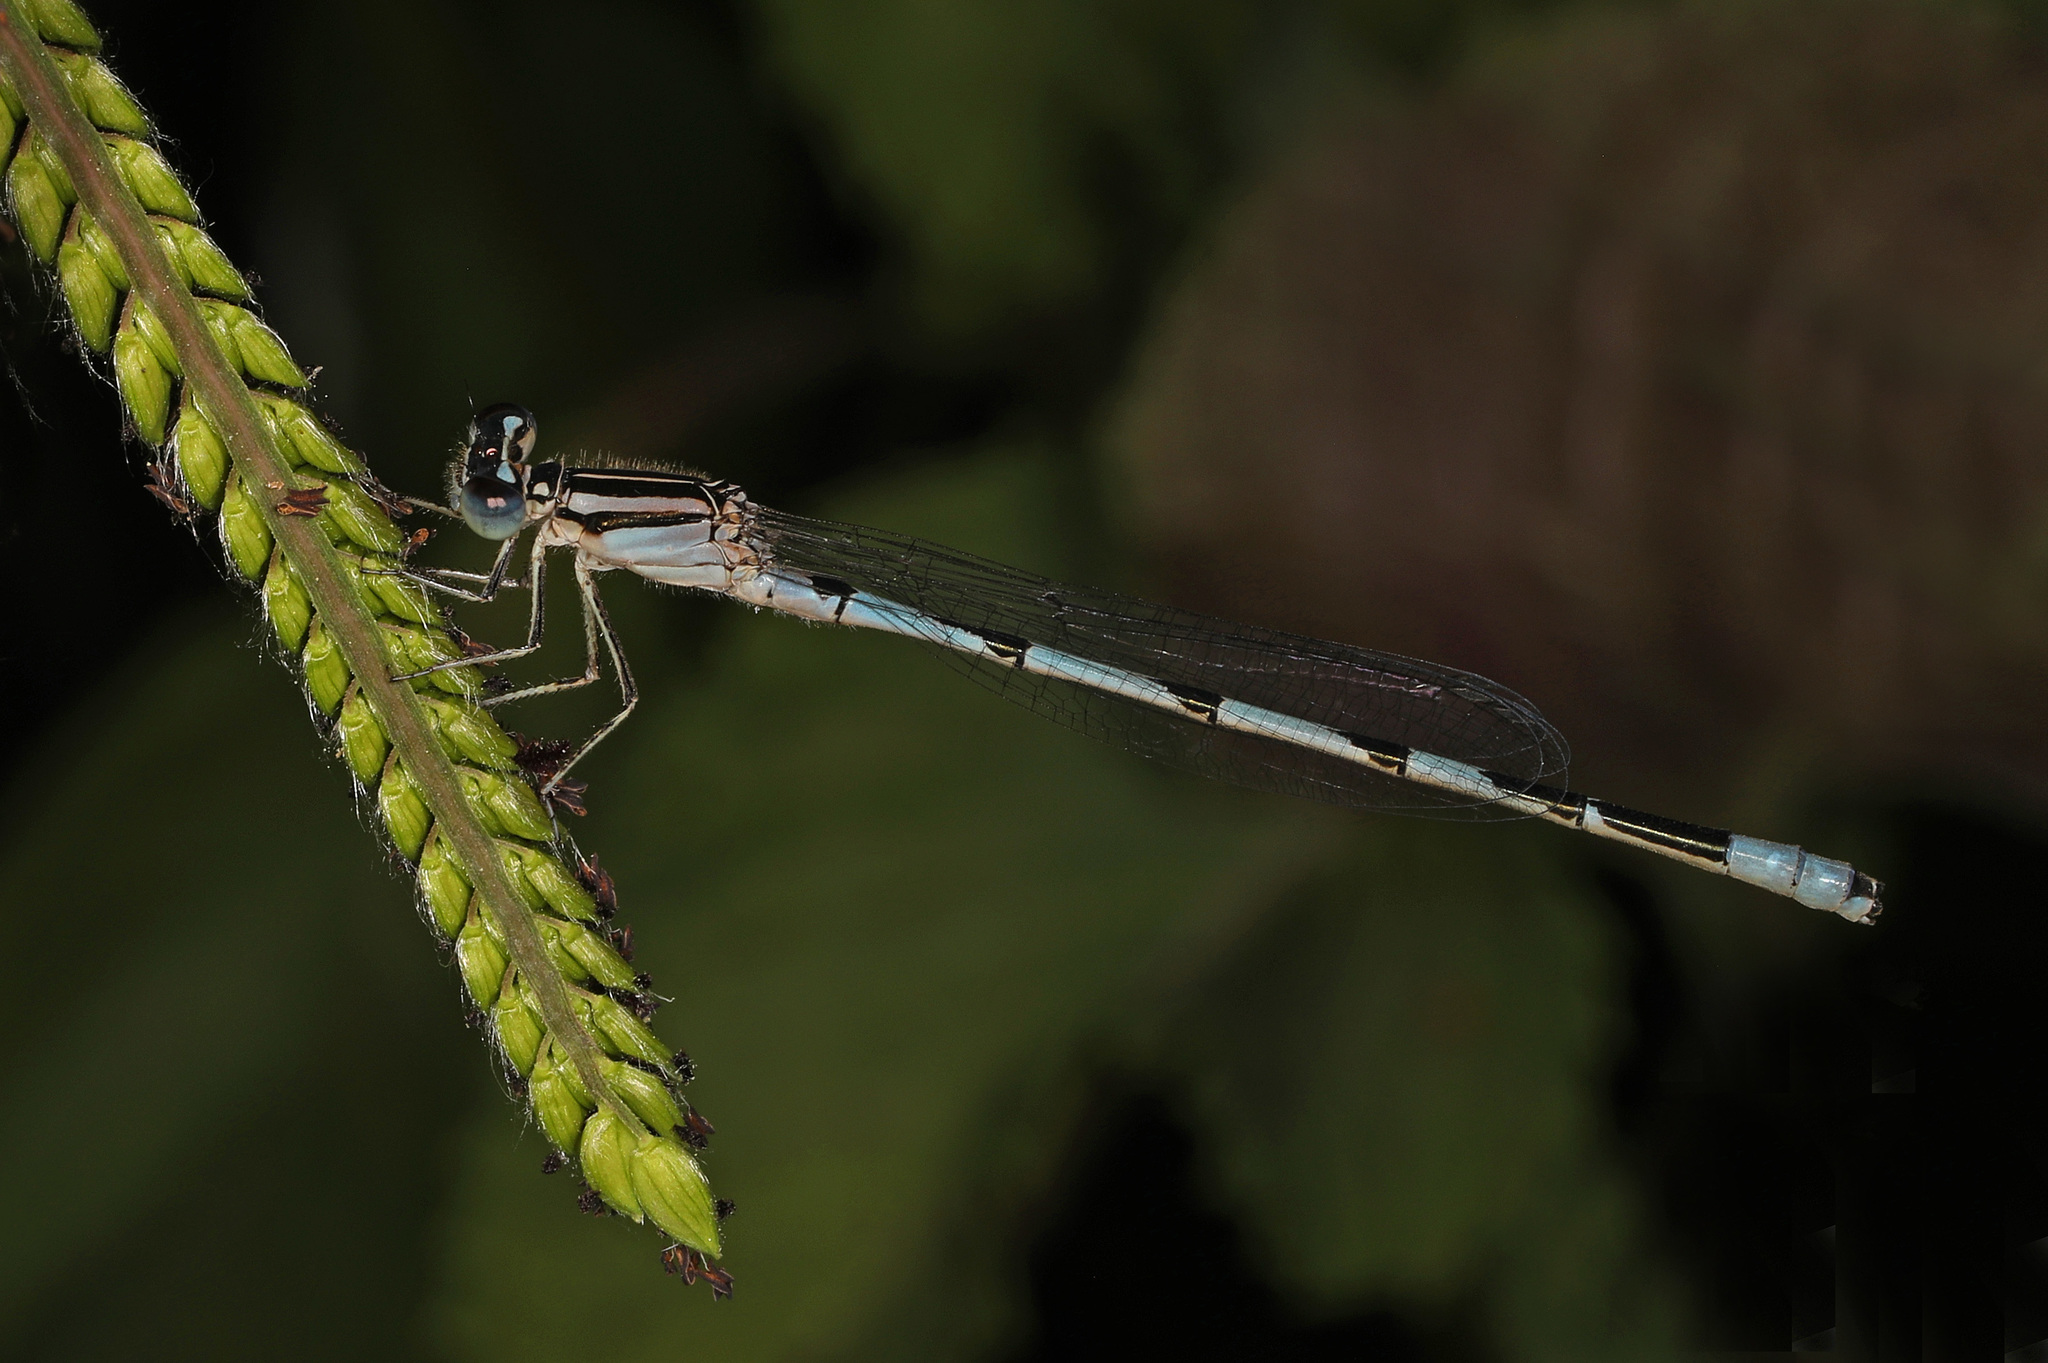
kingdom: Animalia
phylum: Arthropoda
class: Insecta
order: Odonata
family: Coenagrionidae
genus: Enallagma
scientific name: Enallagma durum
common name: Big bluet
